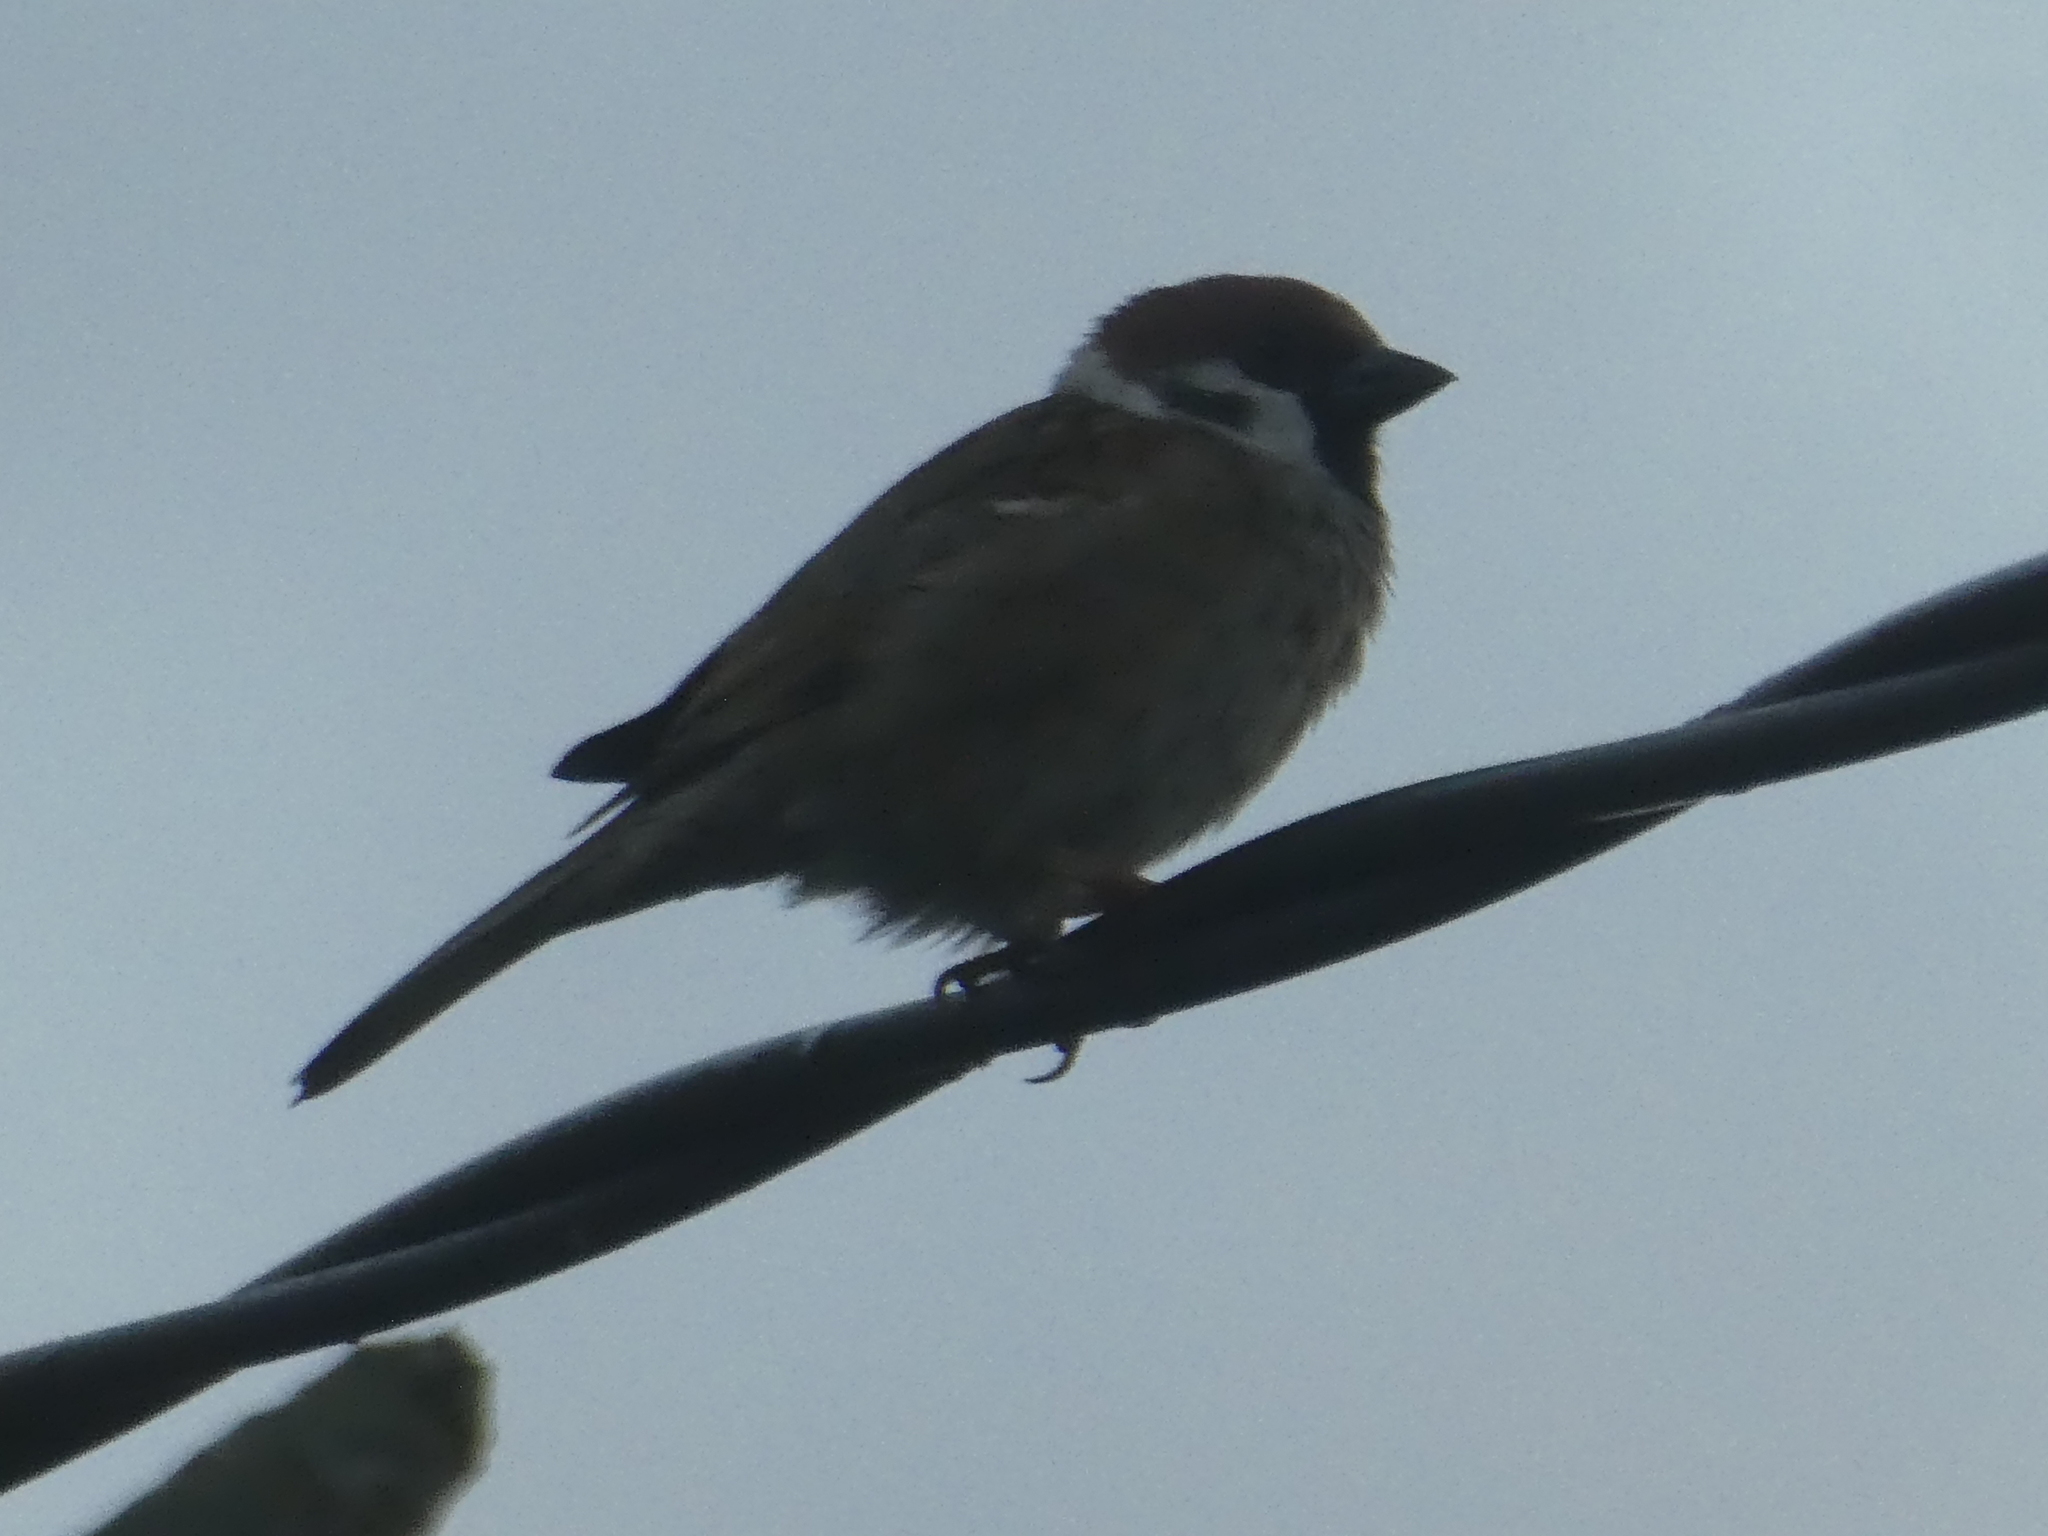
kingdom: Animalia
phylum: Chordata
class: Aves
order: Passeriformes
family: Passeridae
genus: Passer
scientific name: Passer montanus
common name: Eurasian tree sparrow
